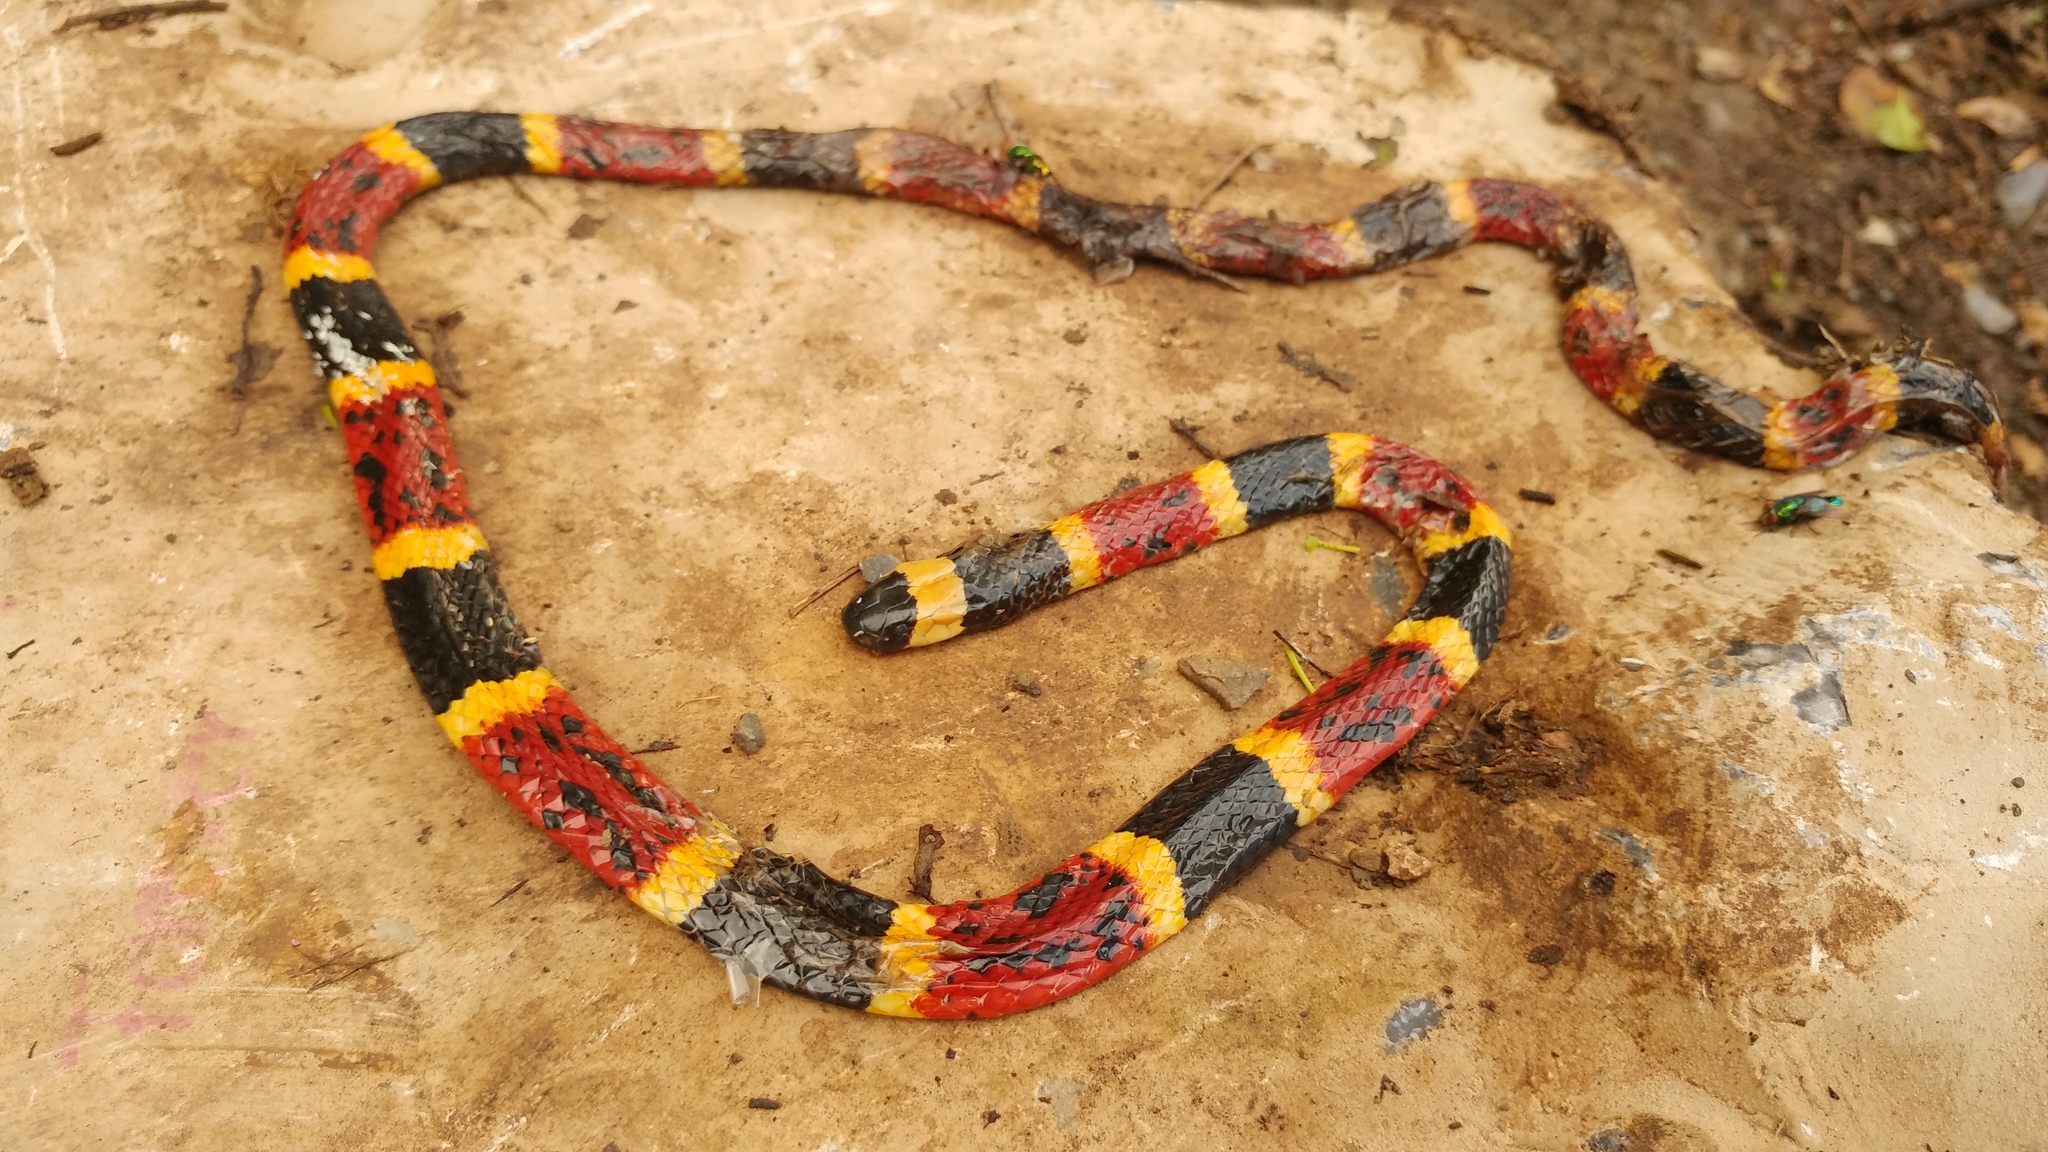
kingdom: Animalia
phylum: Chordata
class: Squamata
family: Elapidae
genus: Micrurus
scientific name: Micrurus tener
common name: Texas coral snake
